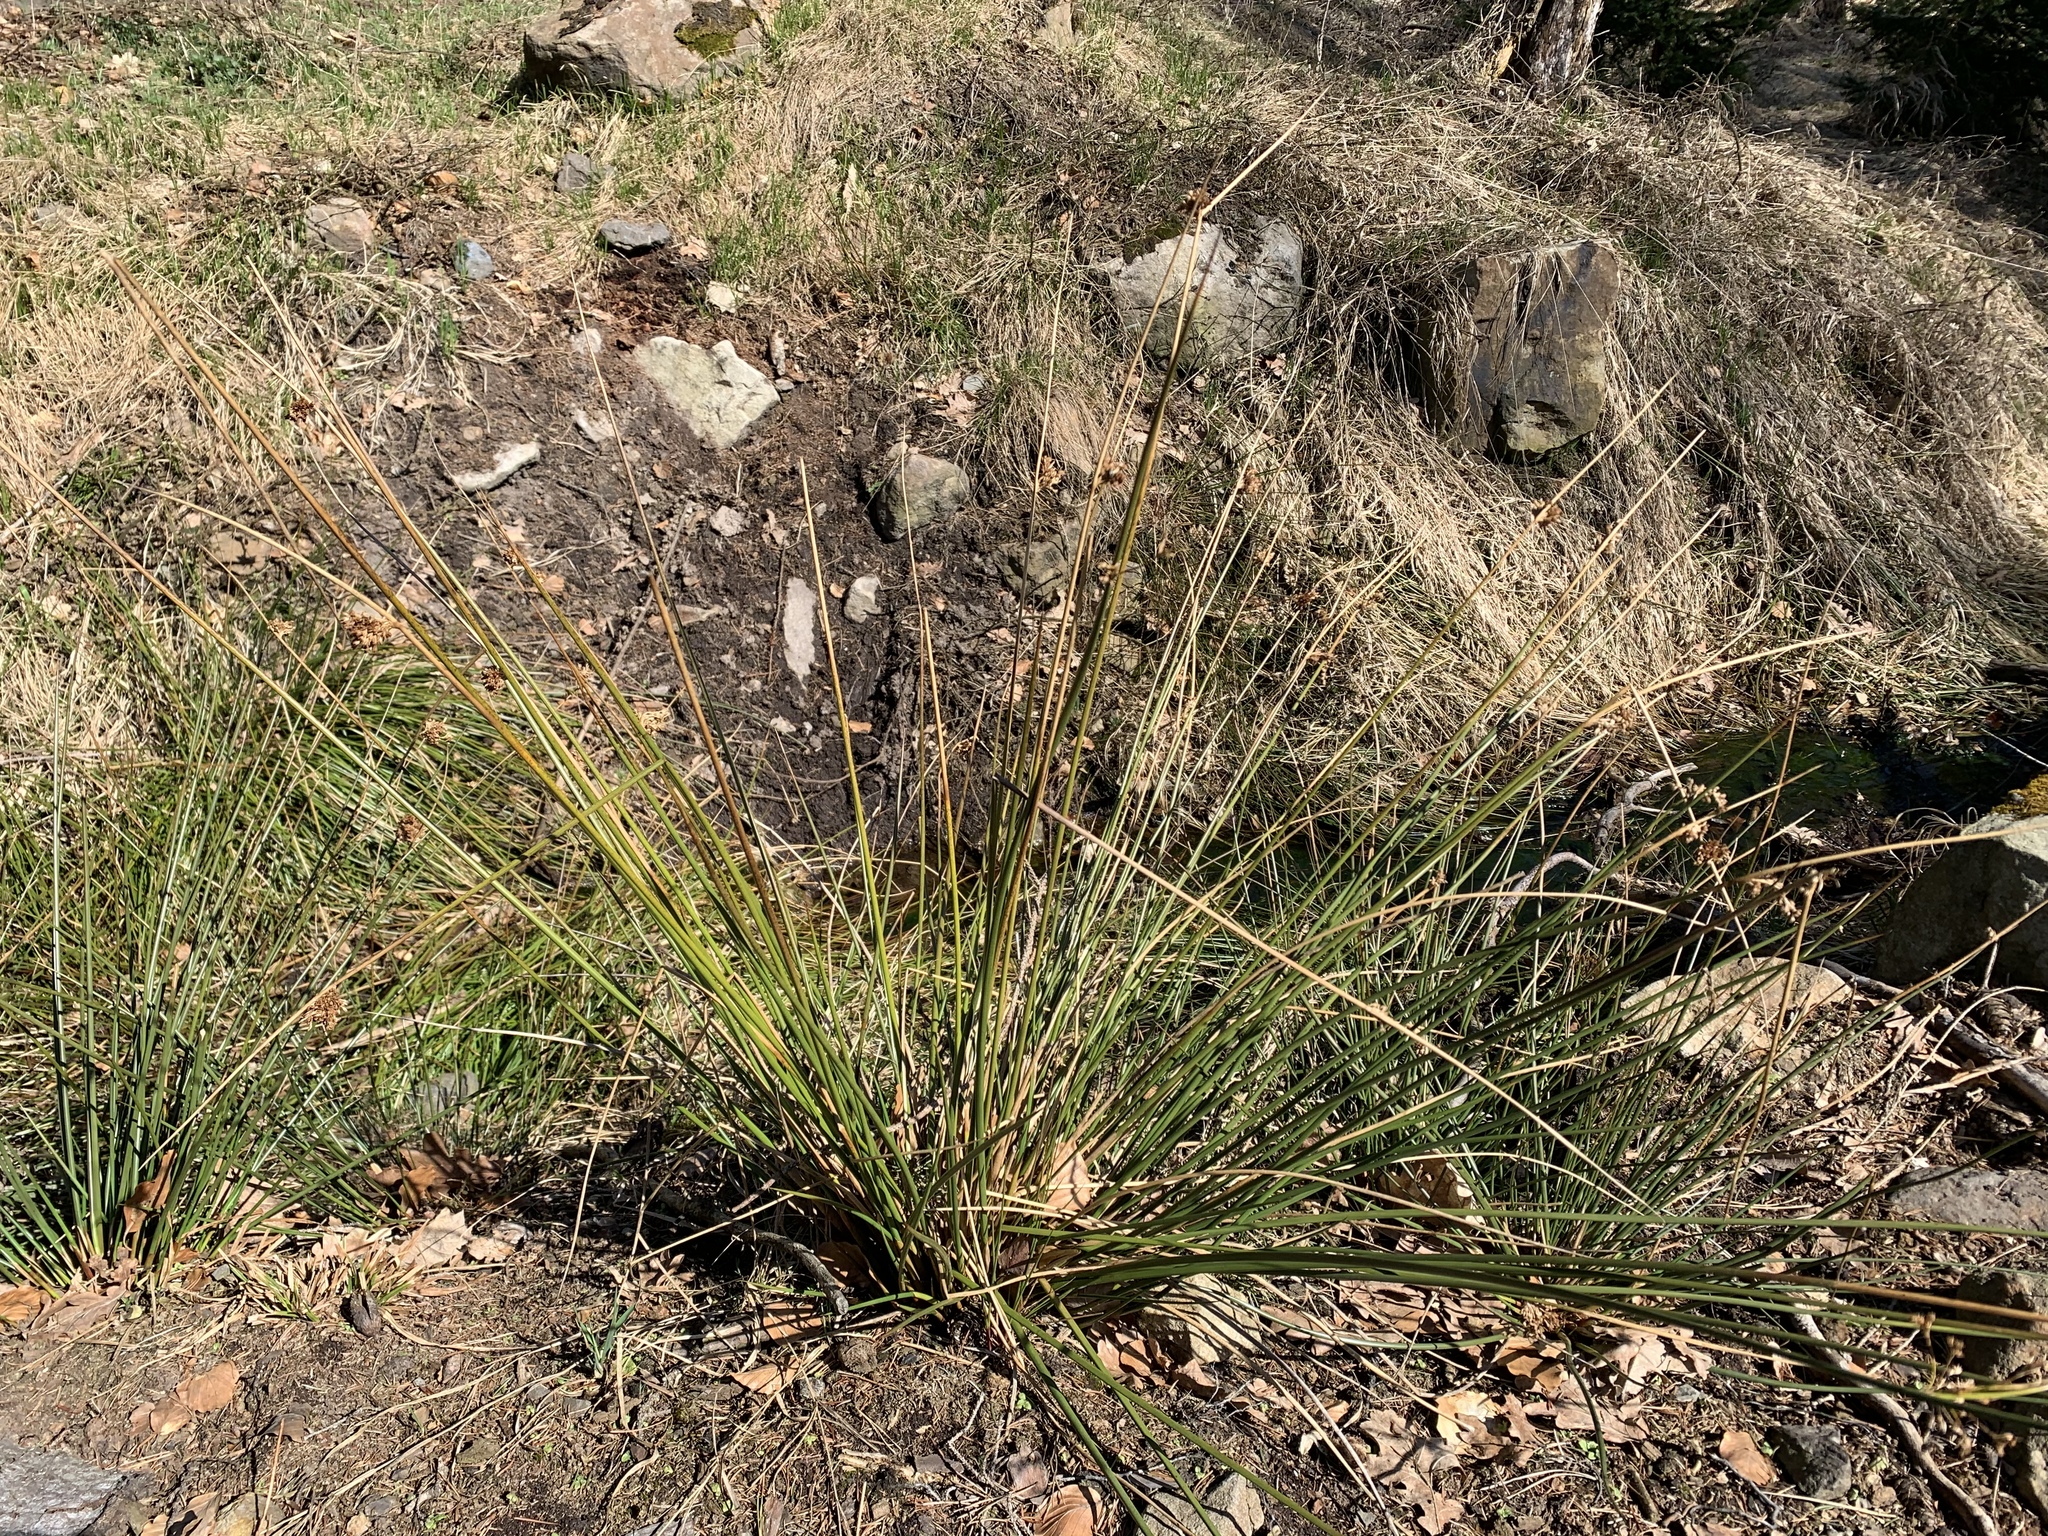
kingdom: Plantae
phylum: Tracheophyta
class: Liliopsida
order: Poales
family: Juncaceae
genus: Juncus
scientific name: Juncus effusus
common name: Soft rush
